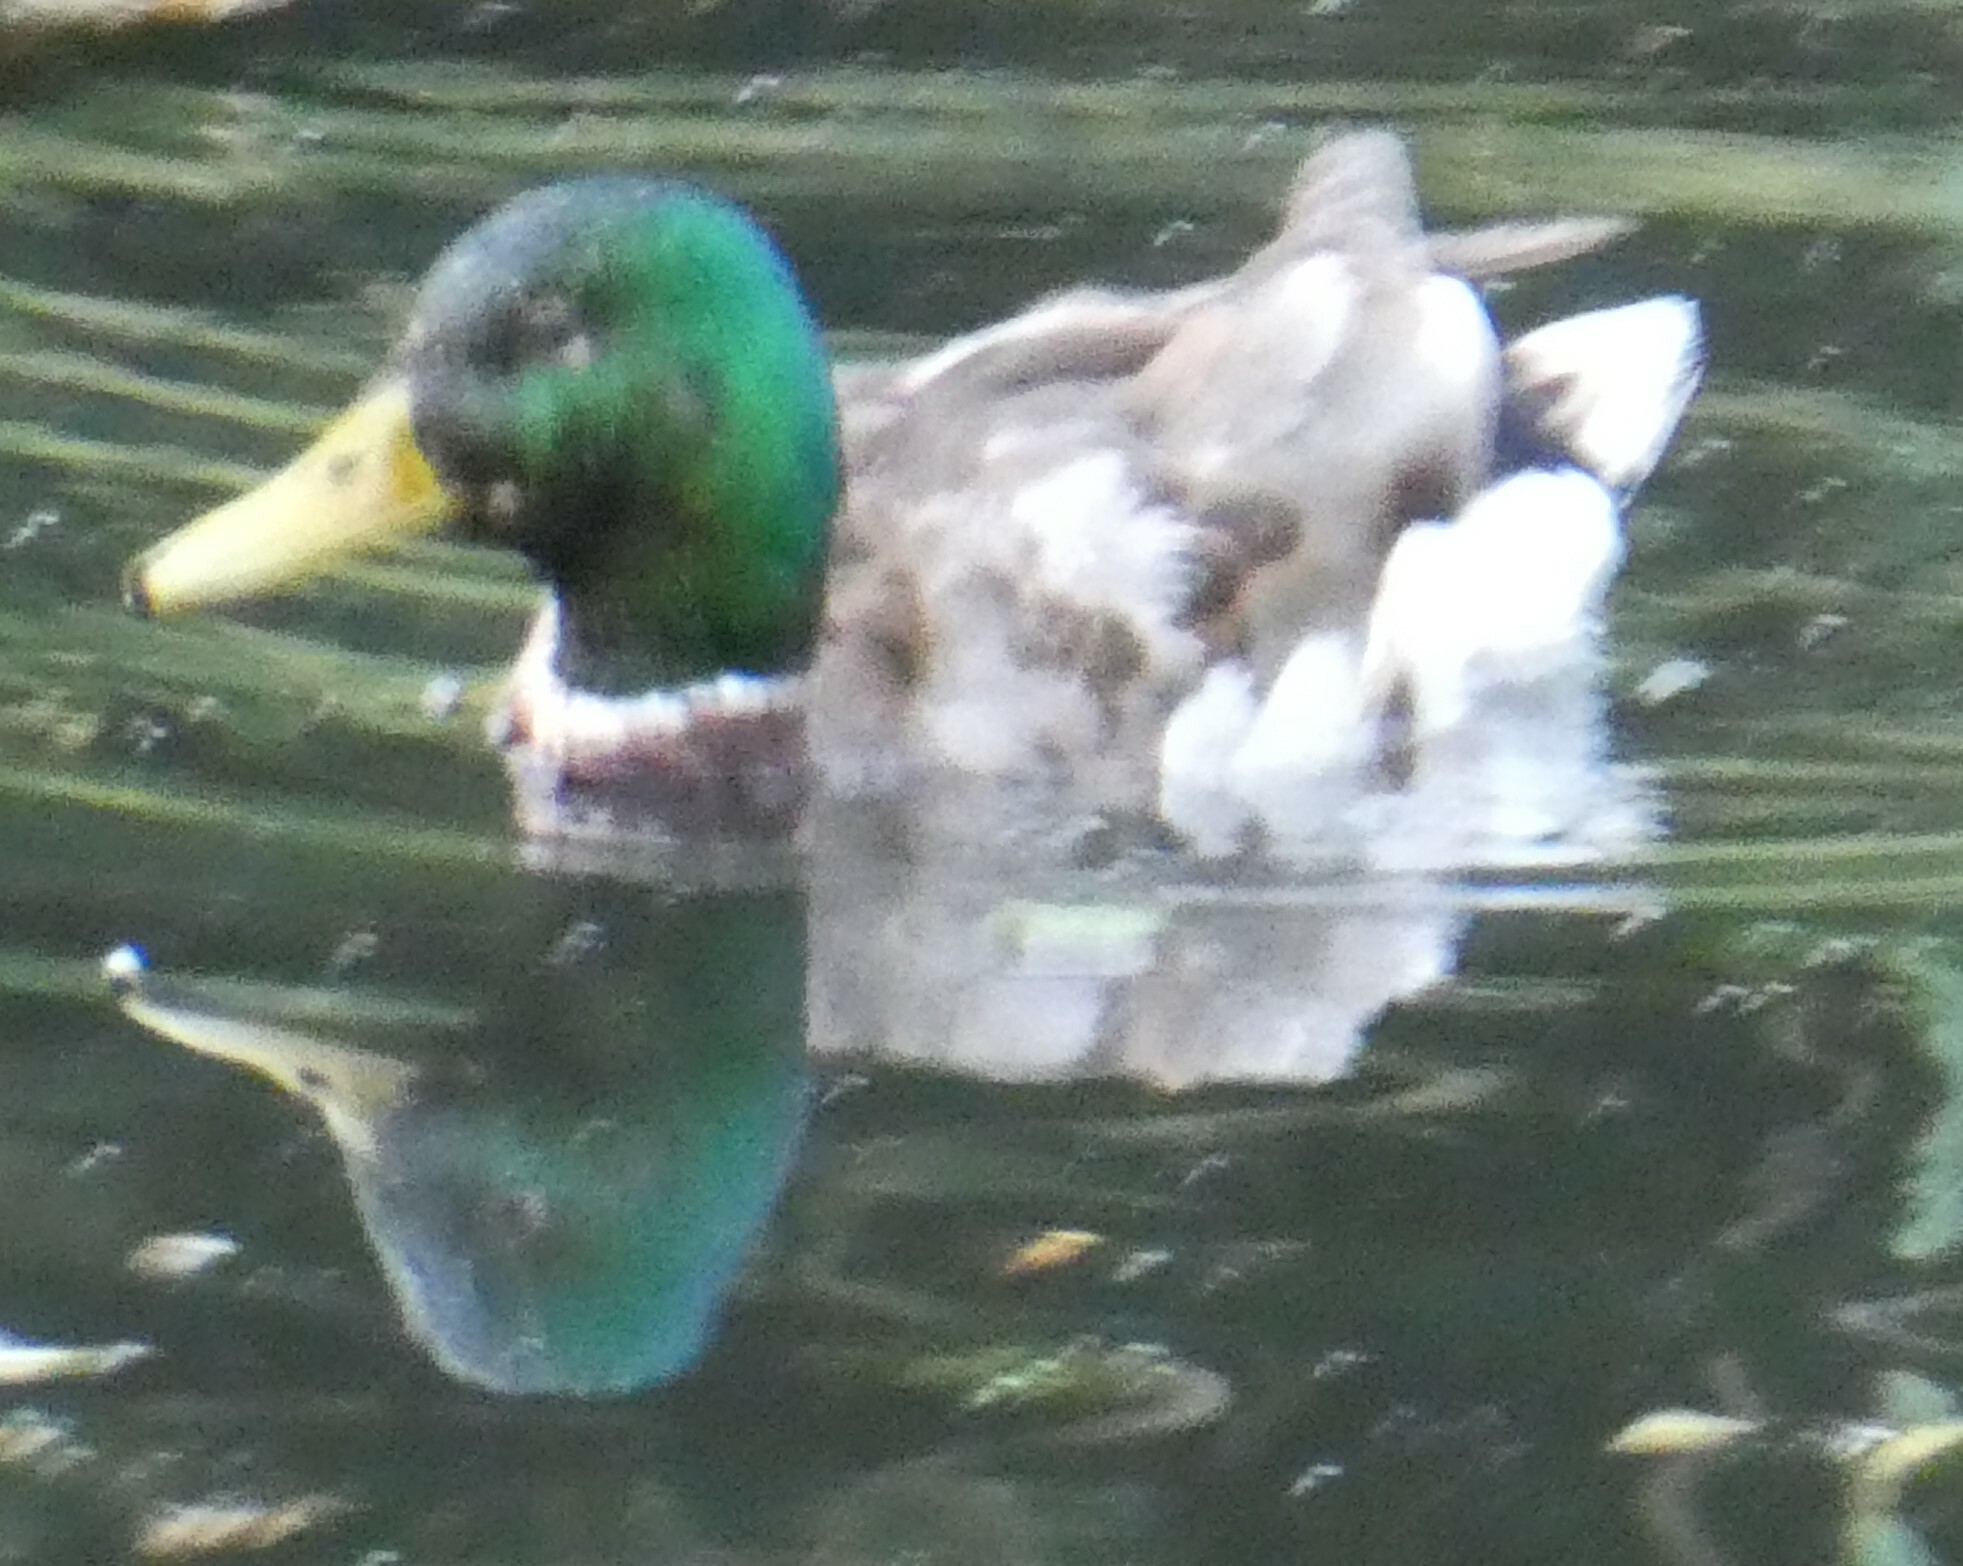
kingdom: Animalia
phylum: Chordata
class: Aves
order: Anseriformes
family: Anatidae
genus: Anas
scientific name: Anas platyrhynchos
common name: Mallard
